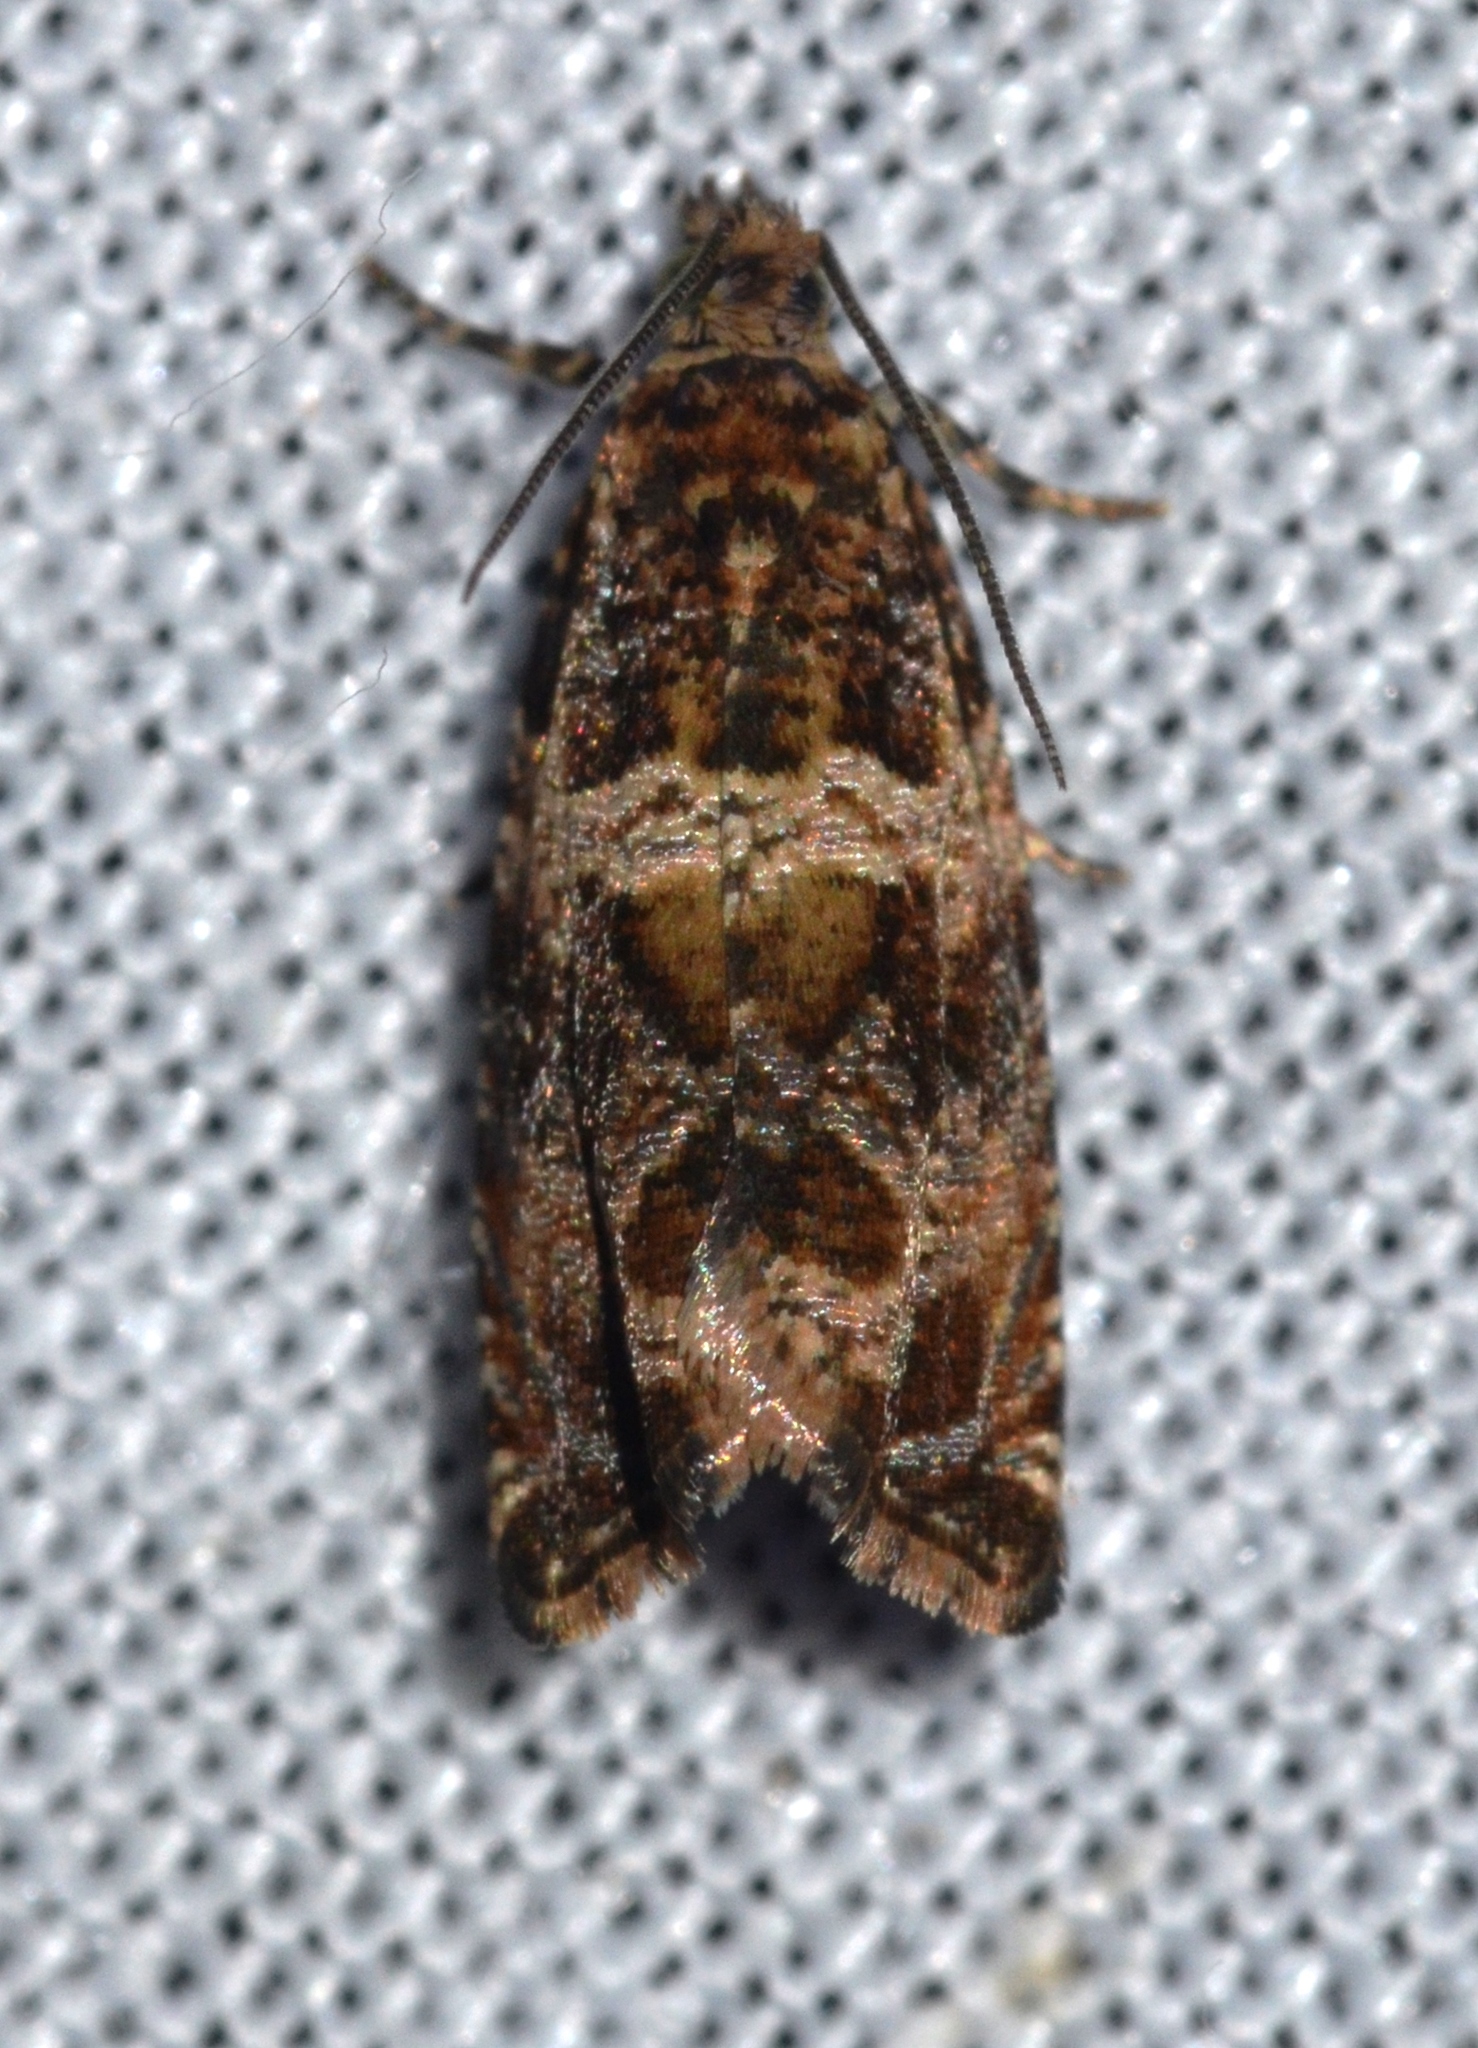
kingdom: Animalia
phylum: Arthropoda
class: Insecta
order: Lepidoptera
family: Tortricidae
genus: Celypha
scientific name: Celypha cespitana
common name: Thyme marble
